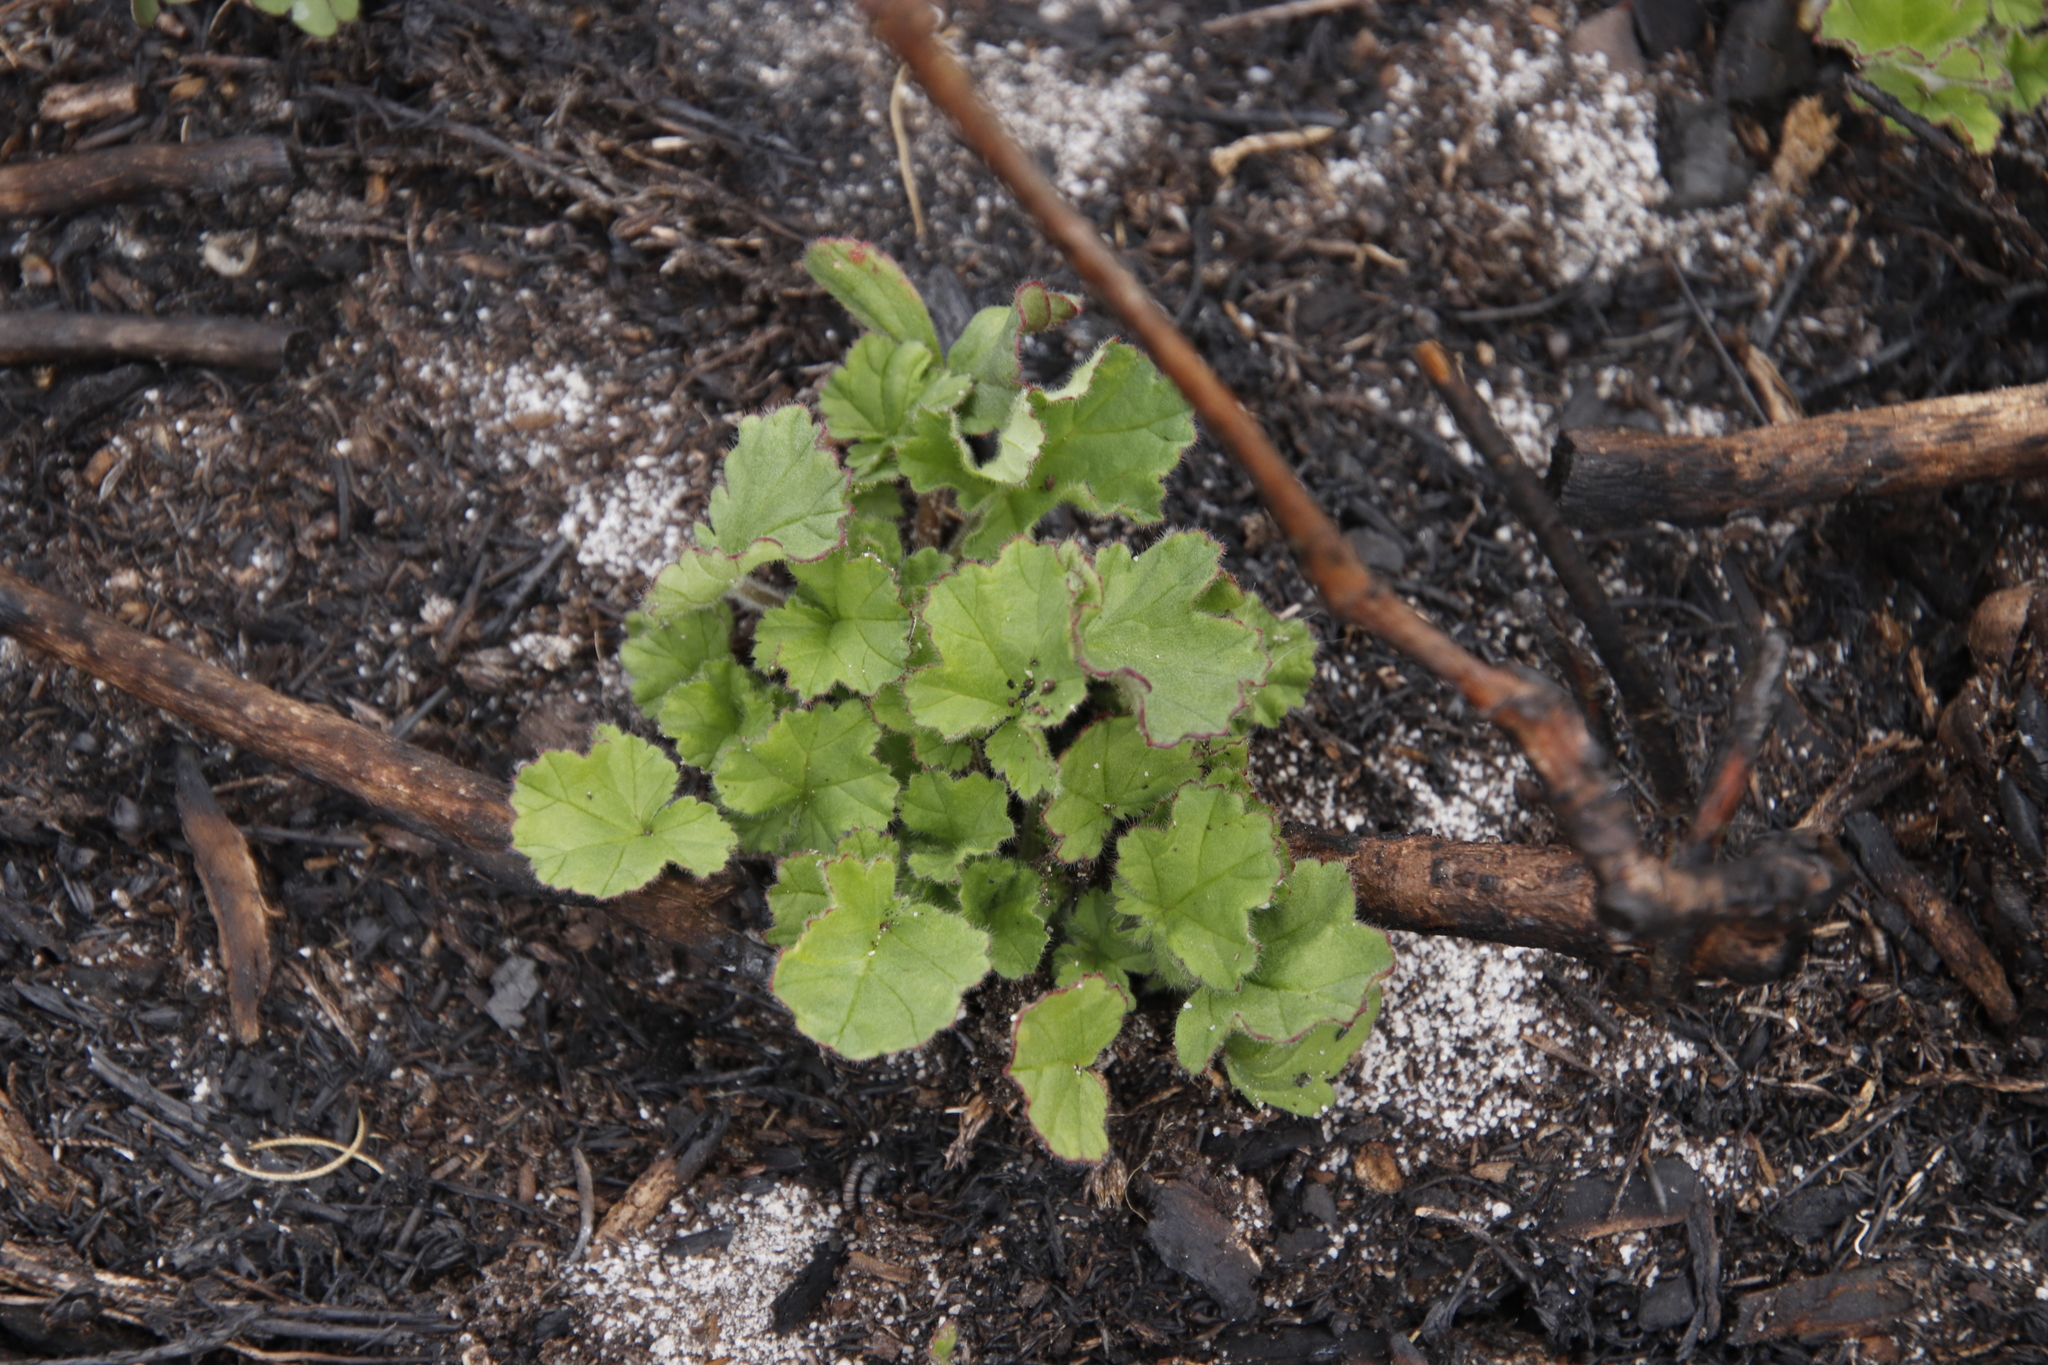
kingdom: Plantae
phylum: Tracheophyta
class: Magnoliopsida
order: Geraniales
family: Geraniaceae
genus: Pelargonium
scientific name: Pelargonium althaeoides
